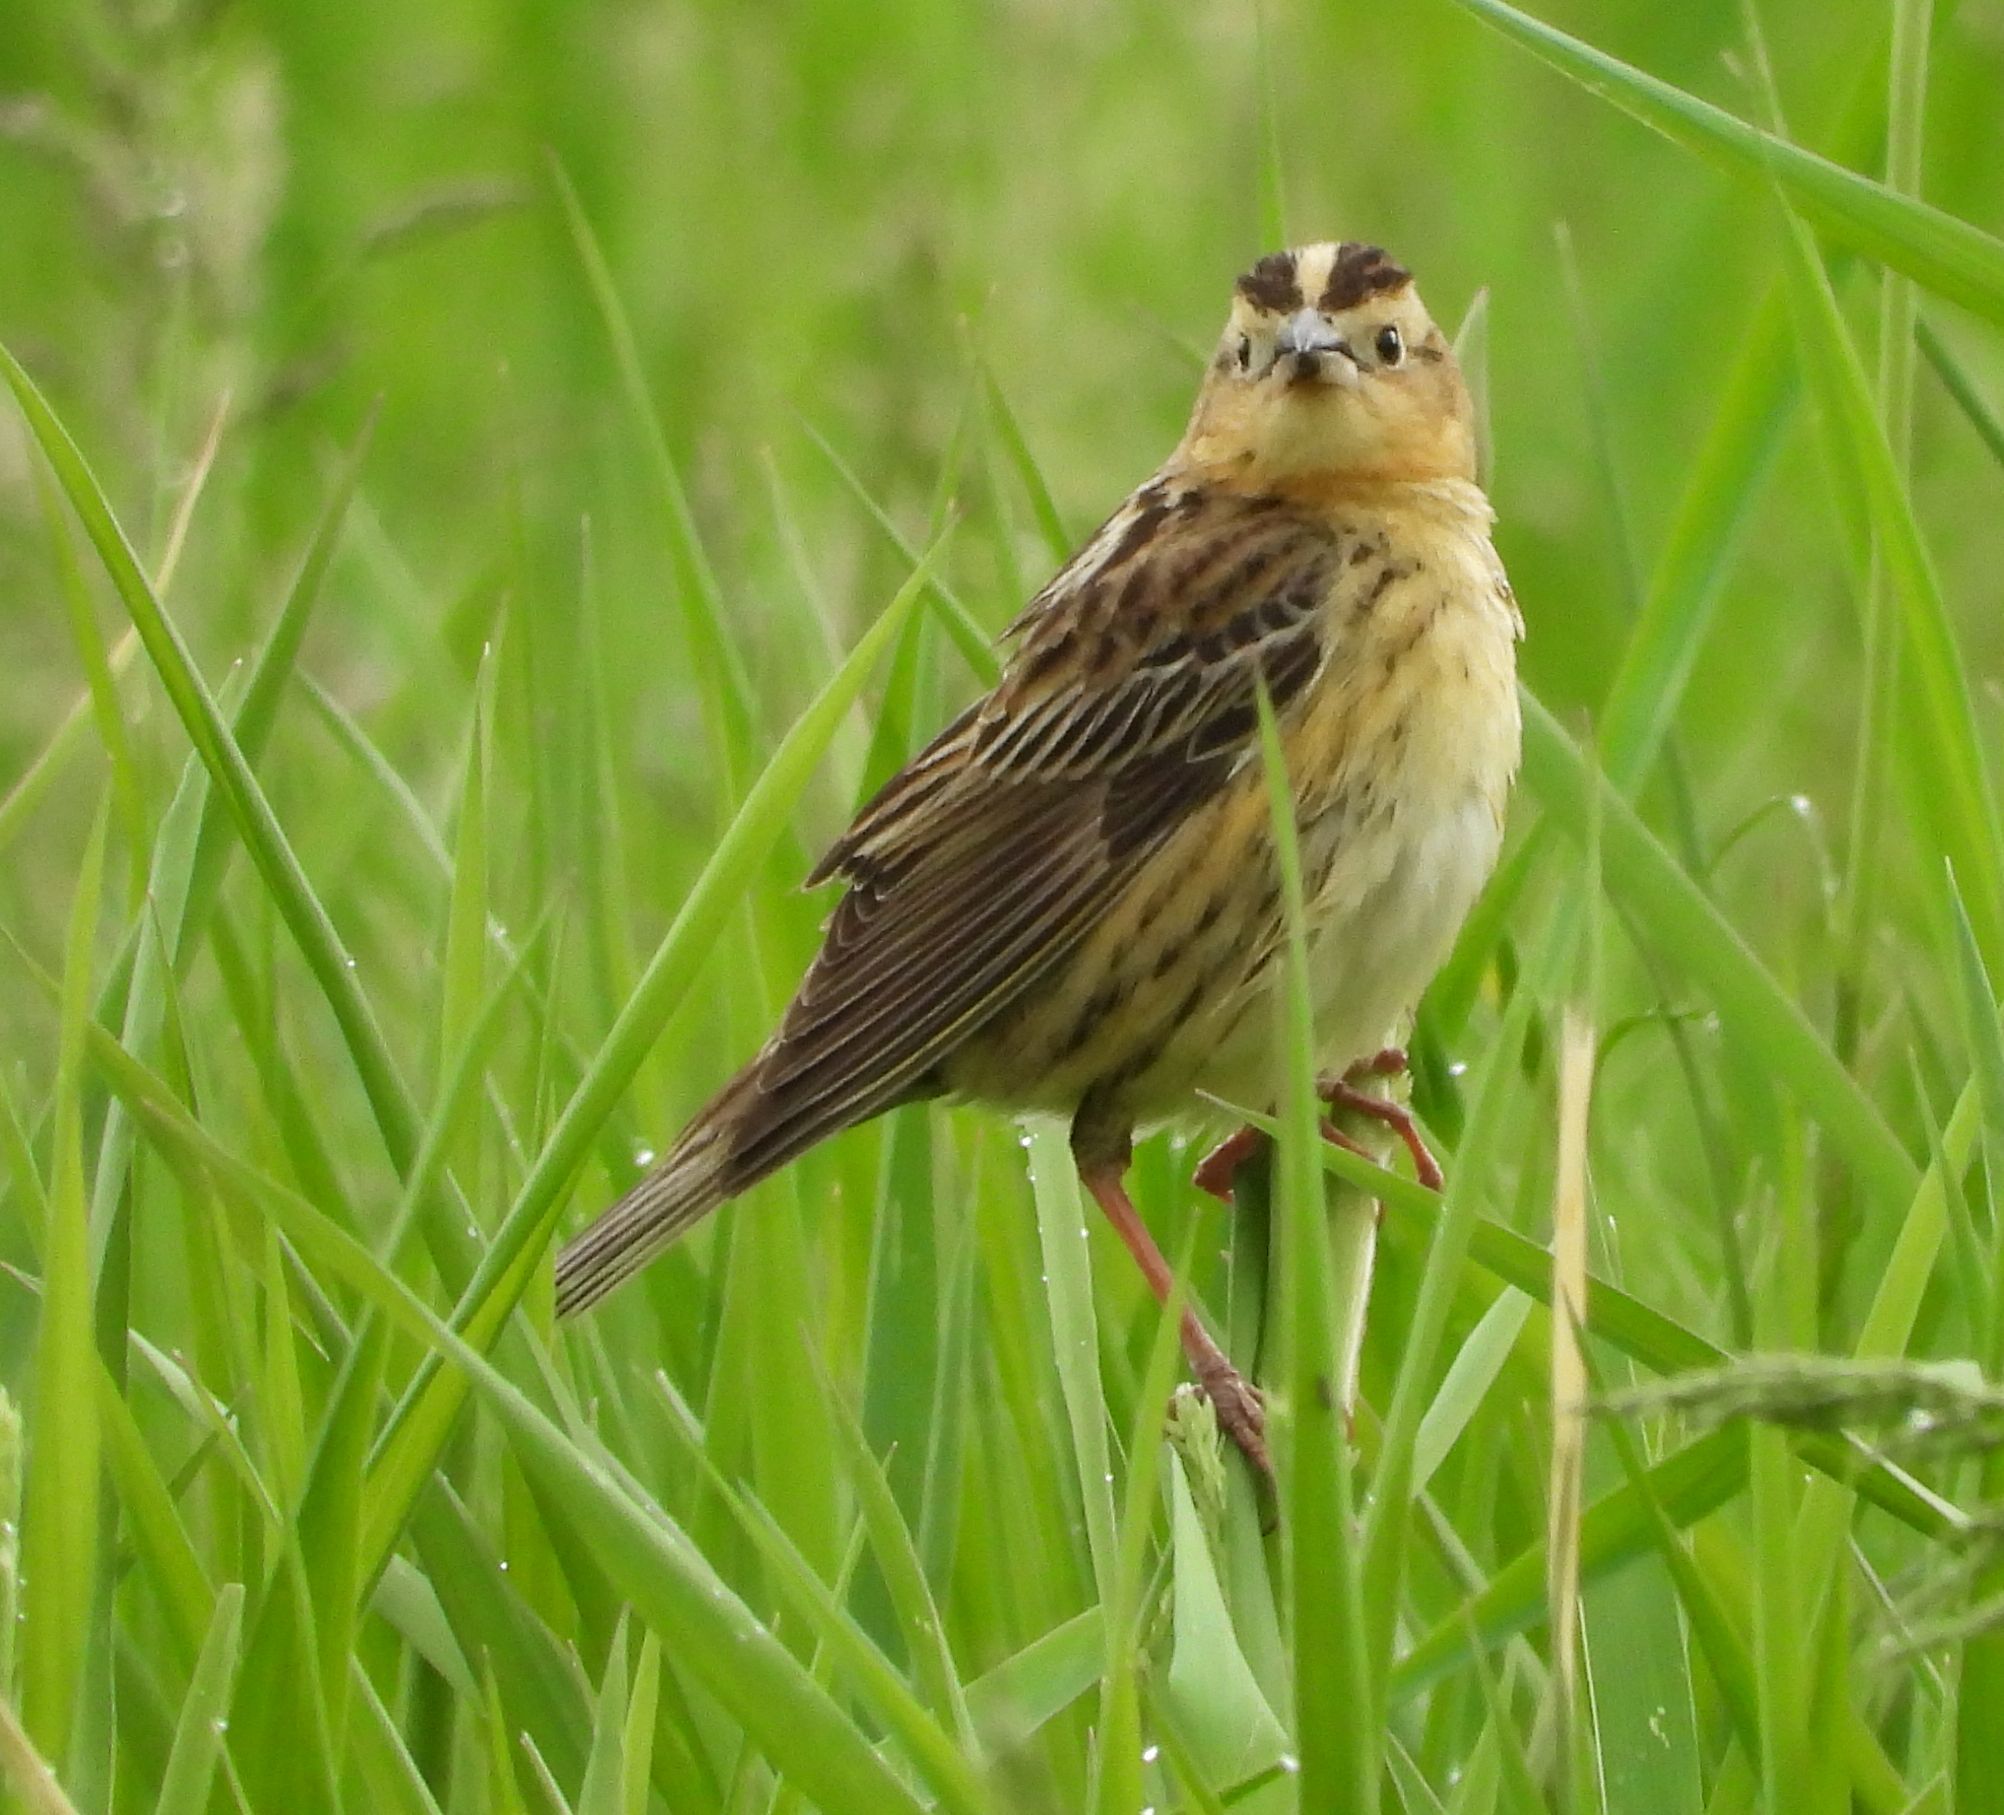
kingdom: Animalia
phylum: Chordata
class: Aves
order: Passeriformes
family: Icteridae
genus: Dolichonyx
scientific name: Dolichonyx oryzivorus
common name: Bobolink
